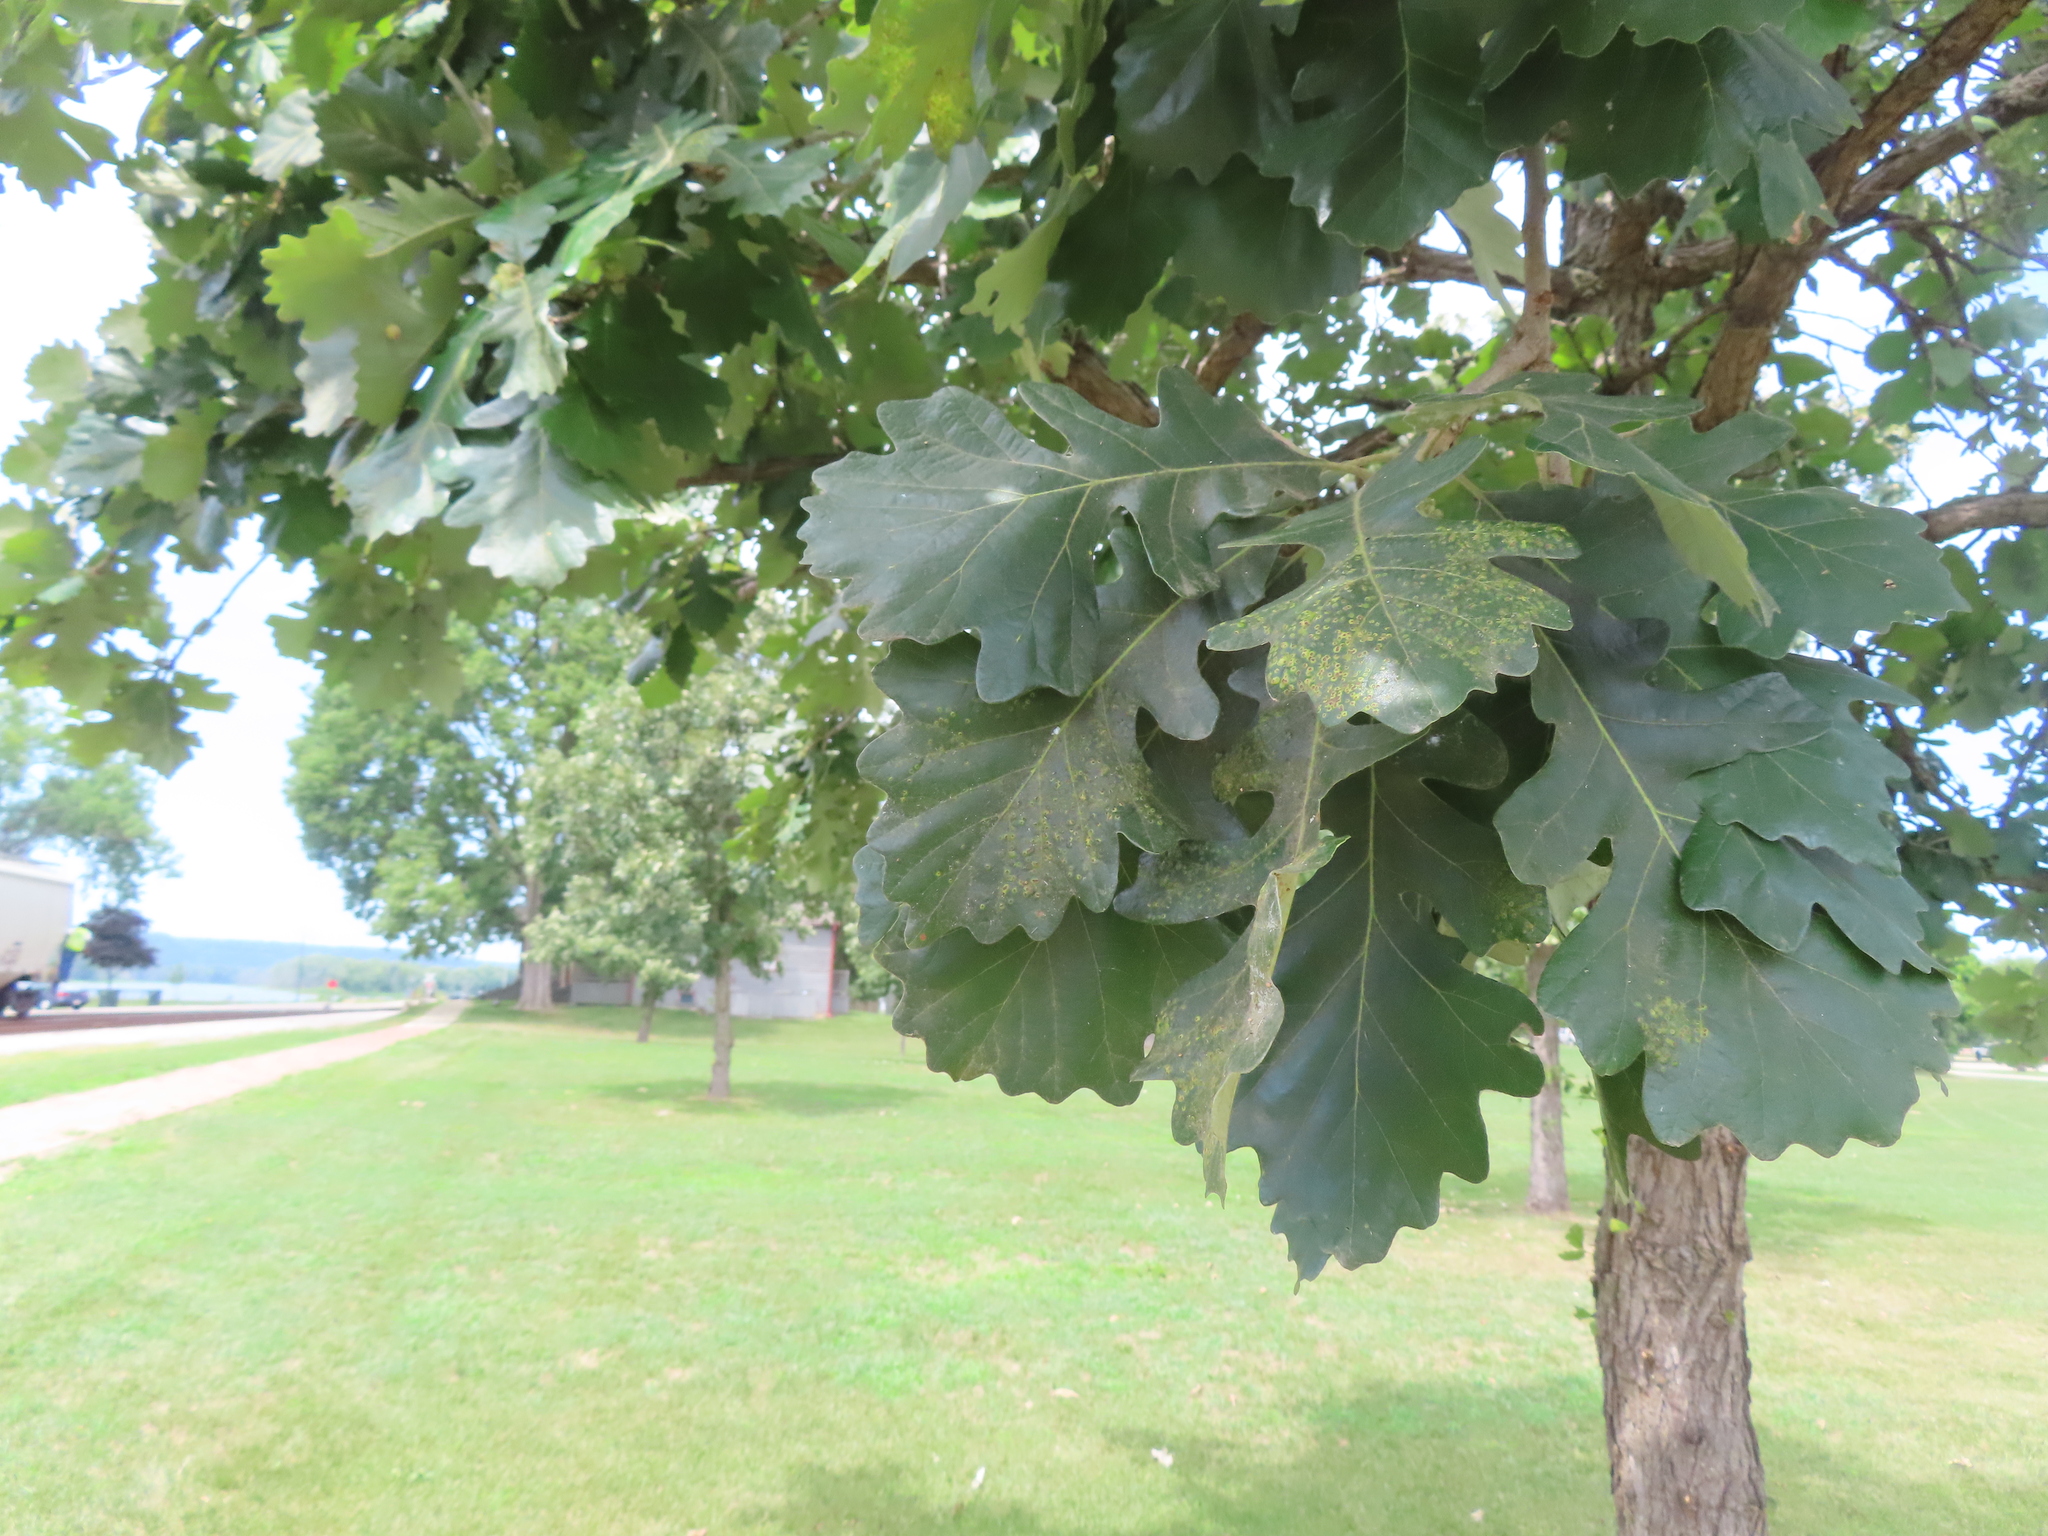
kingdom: Animalia
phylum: Arthropoda
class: Insecta
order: Hymenoptera
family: Cynipidae
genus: Neuroterus
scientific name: Neuroterus saltarius
